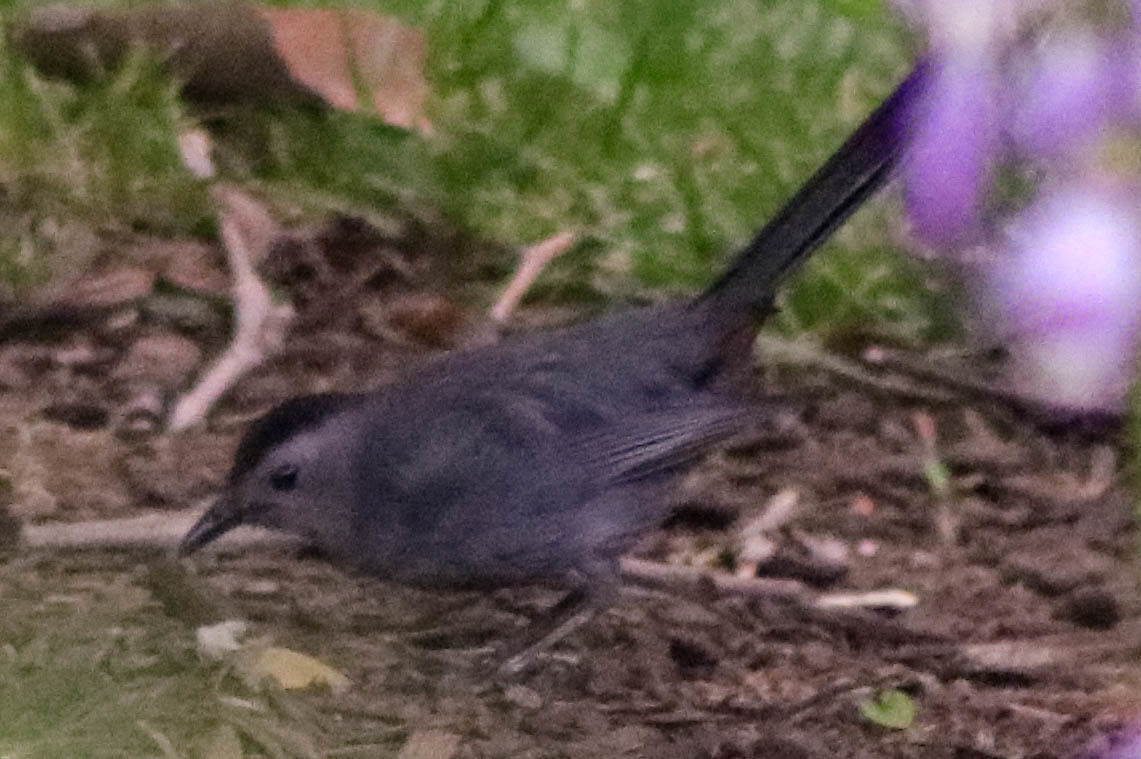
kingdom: Animalia
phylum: Chordata
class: Aves
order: Passeriformes
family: Mimidae
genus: Dumetella
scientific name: Dumetella carolinensis
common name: Gray catbird
